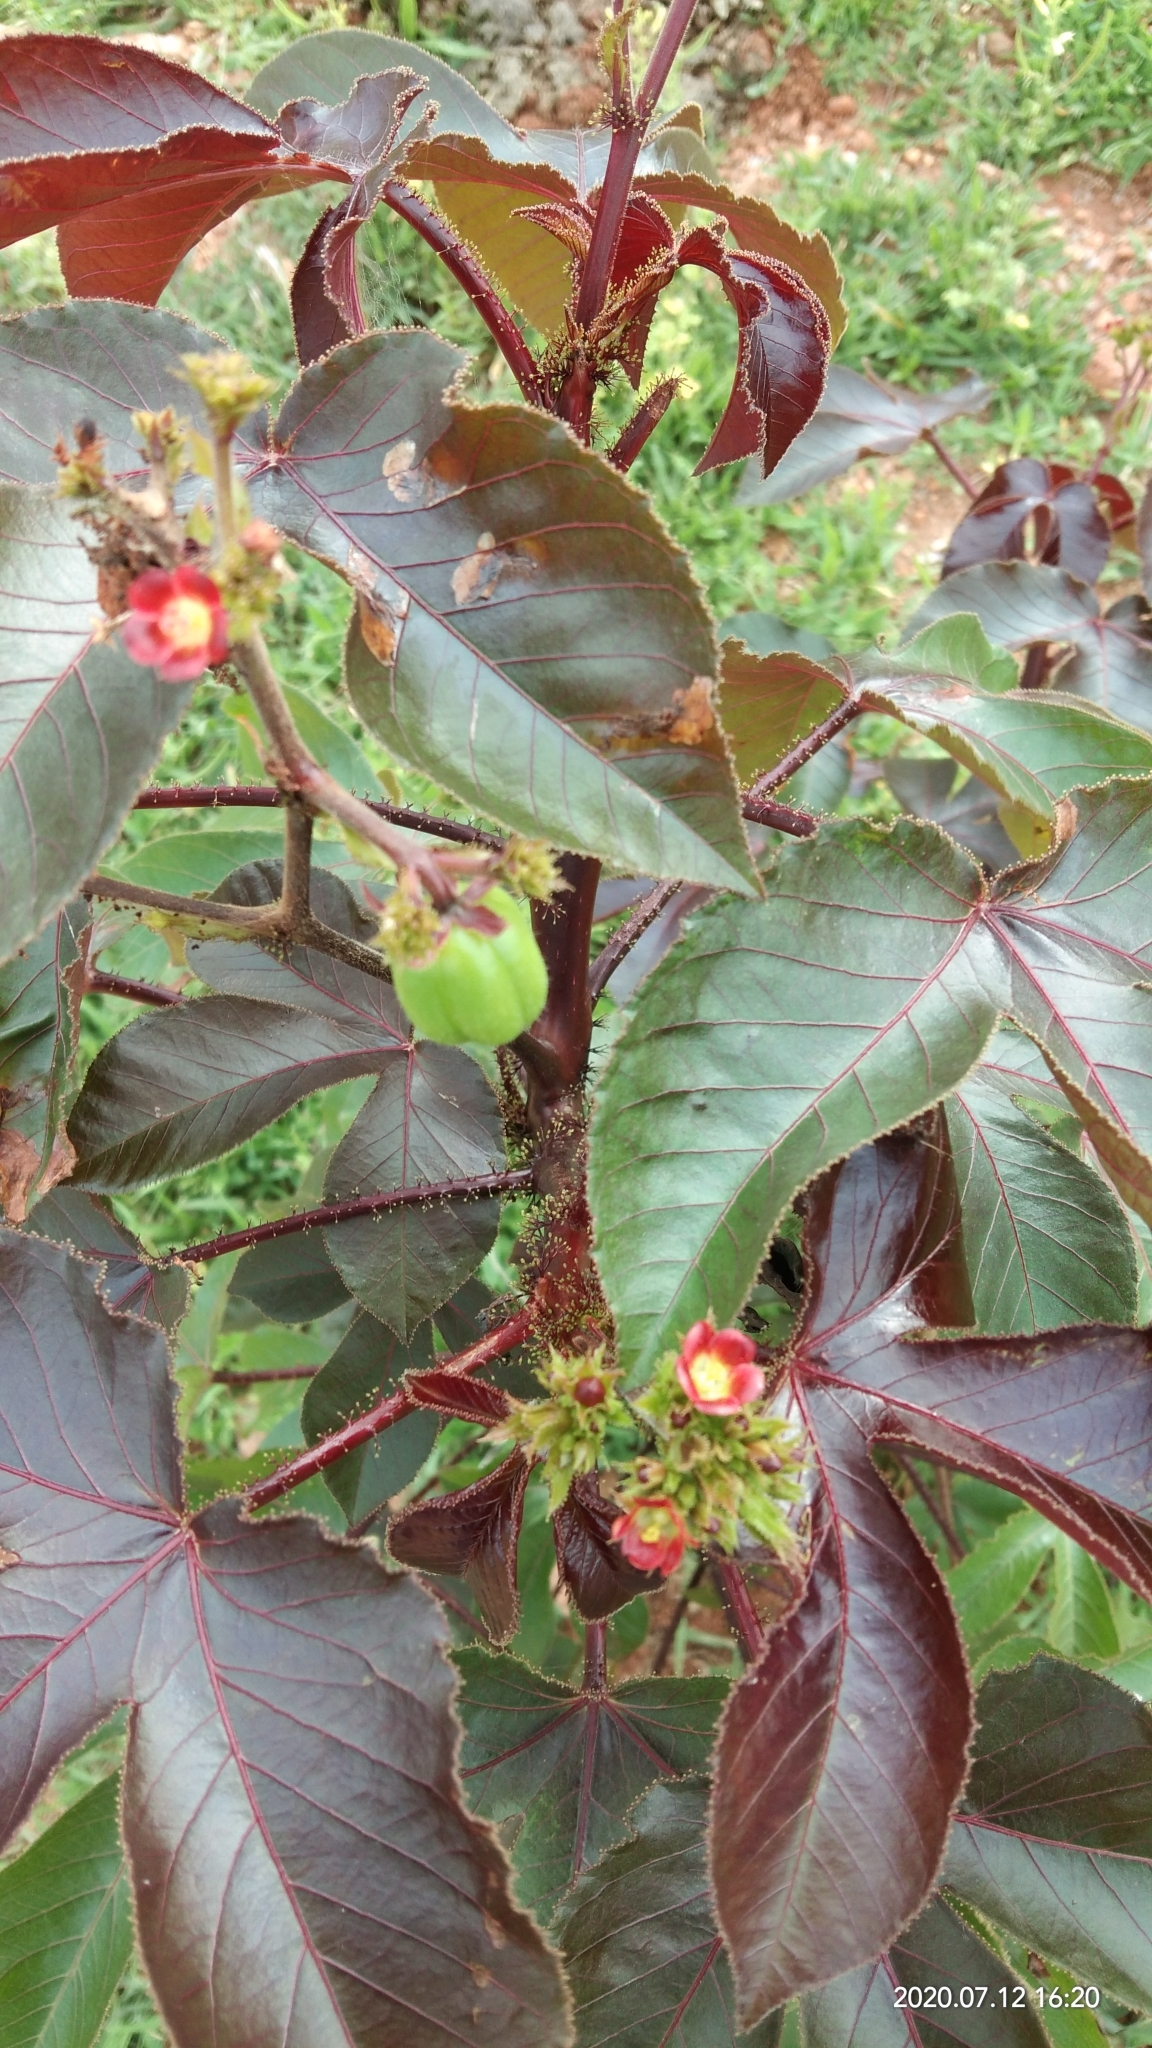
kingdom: Plantae
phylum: Tracheophyta
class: Magnoliopsida
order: Malpighiales
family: Euphorbiaceae
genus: Jatropha
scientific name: Jatropha gossypiifolia
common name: Bellyache bush
